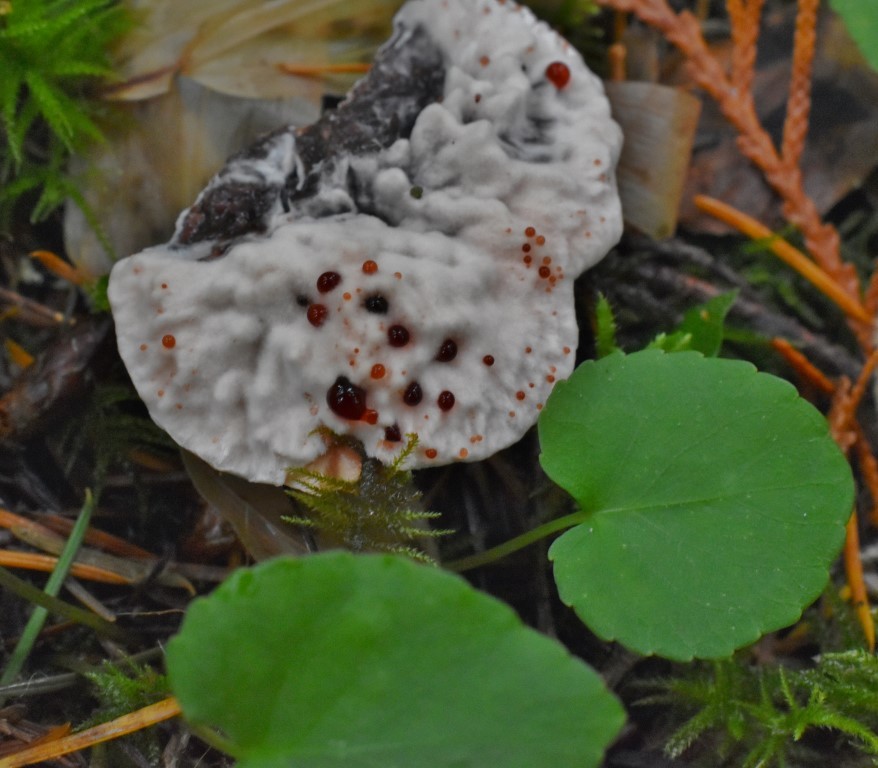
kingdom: Fungi
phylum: Basidiomycota
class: Agaricomycetes
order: Thelephorales
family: Bankeraceae
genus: Hydnellum
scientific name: Hydnellum peckii
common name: Devil's tooth
